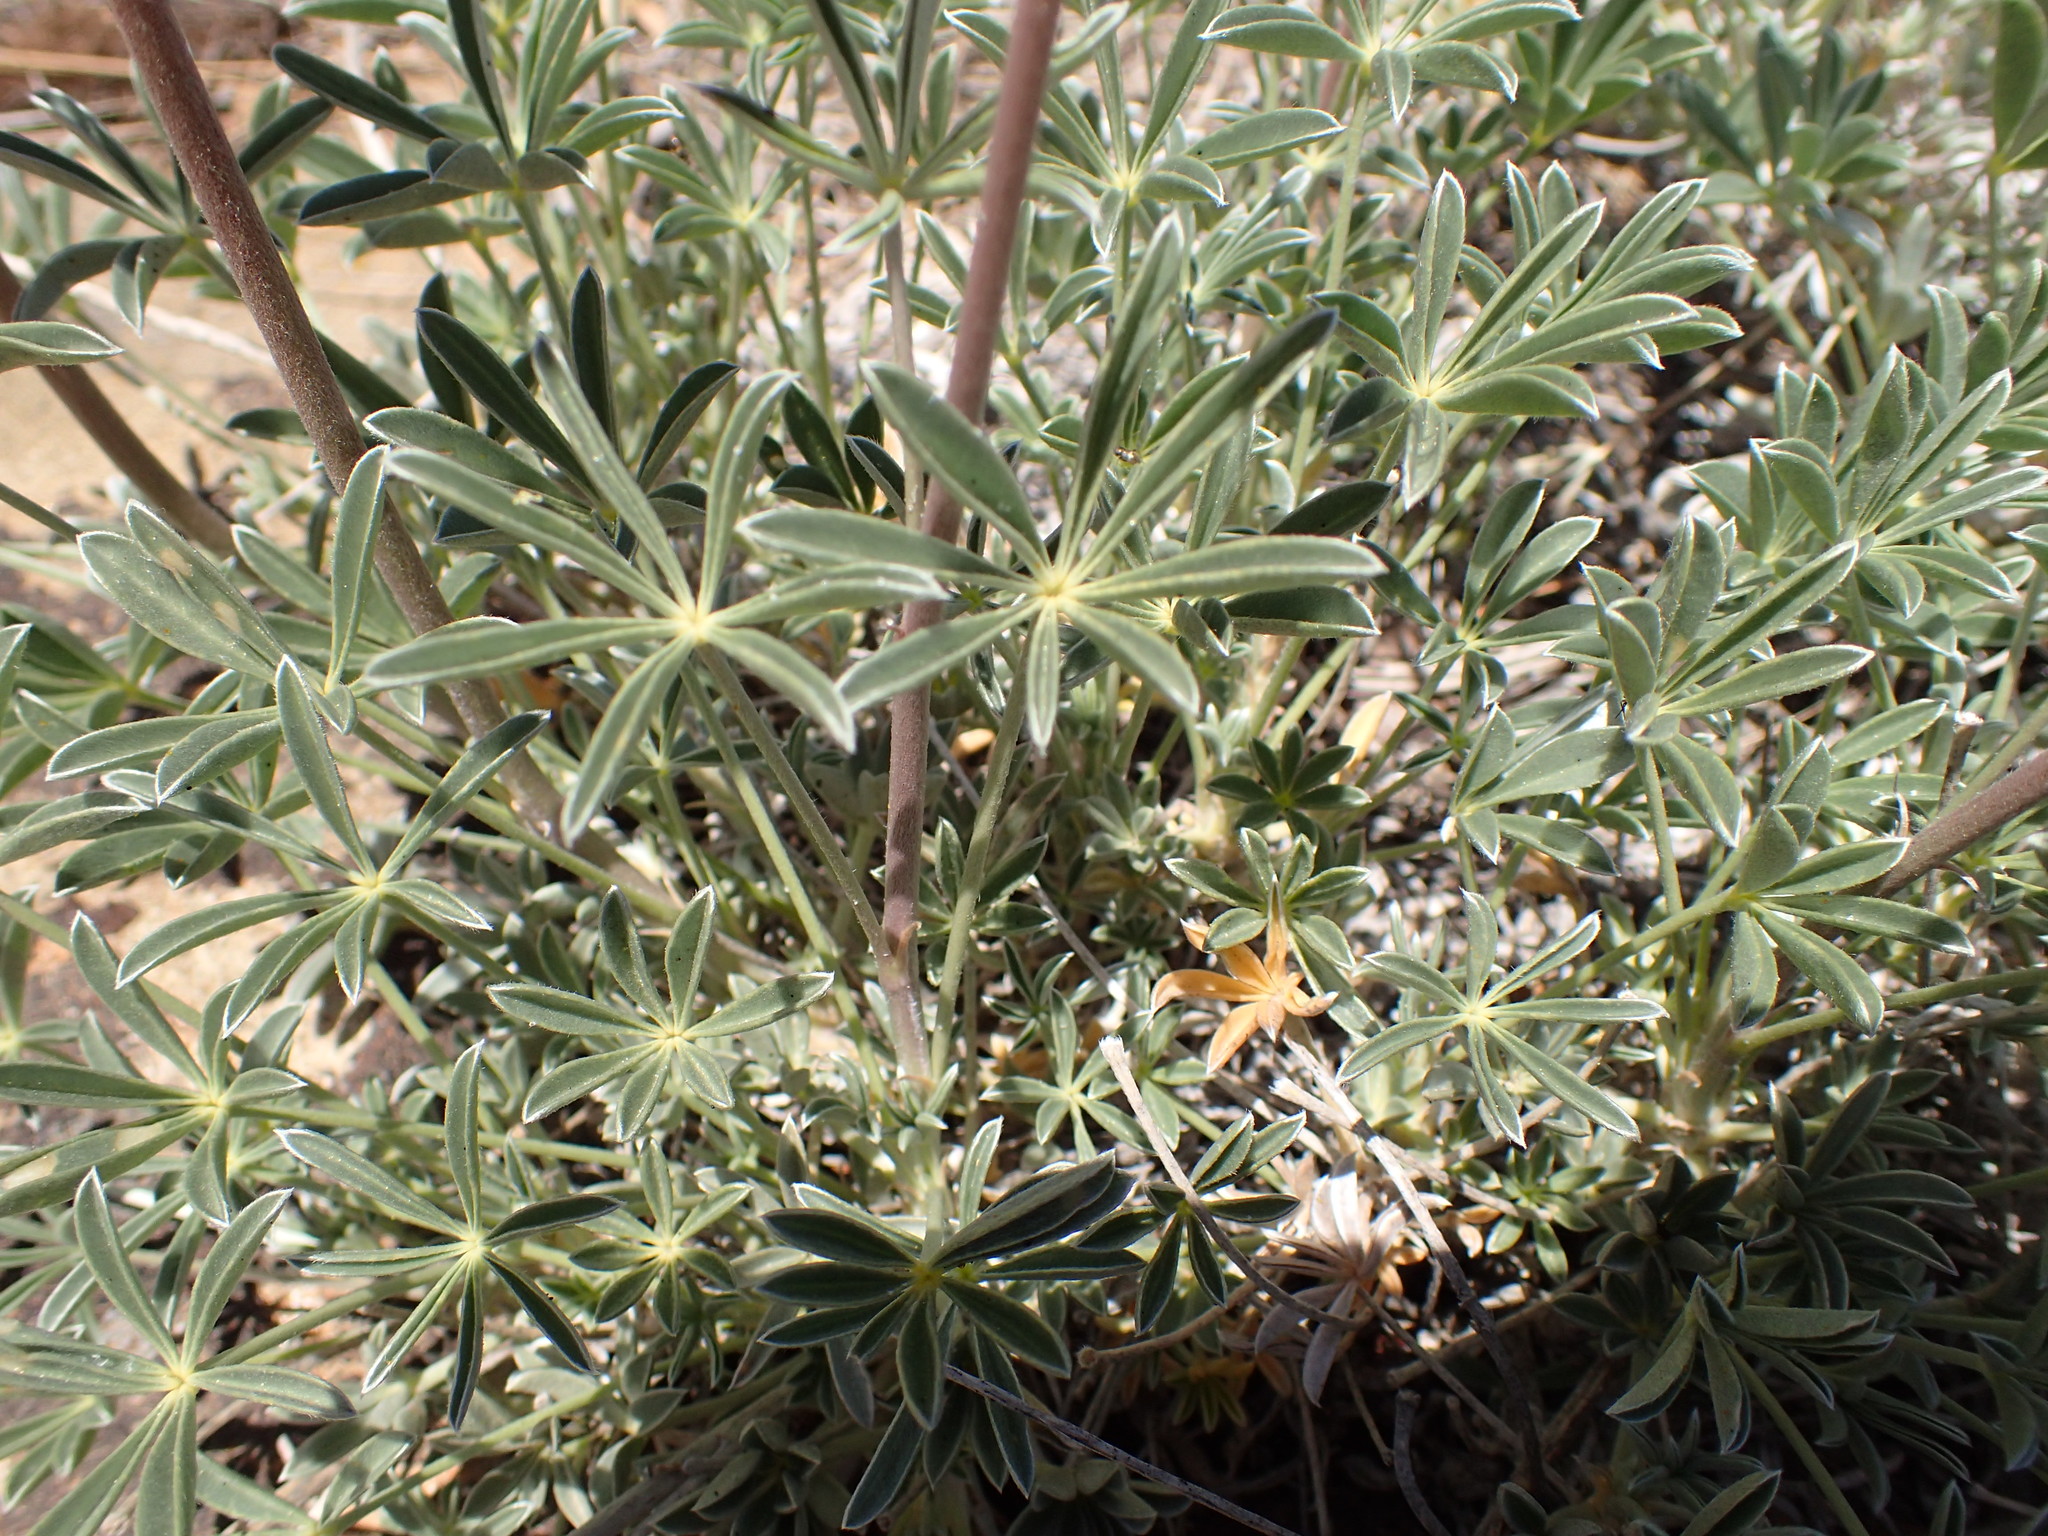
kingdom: Plantae
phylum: Tracheophyta
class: Magnoliopsida
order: Fabales
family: Fabaceae
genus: Lupinus
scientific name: Lupinus excubitus
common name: Grape soda lupine
